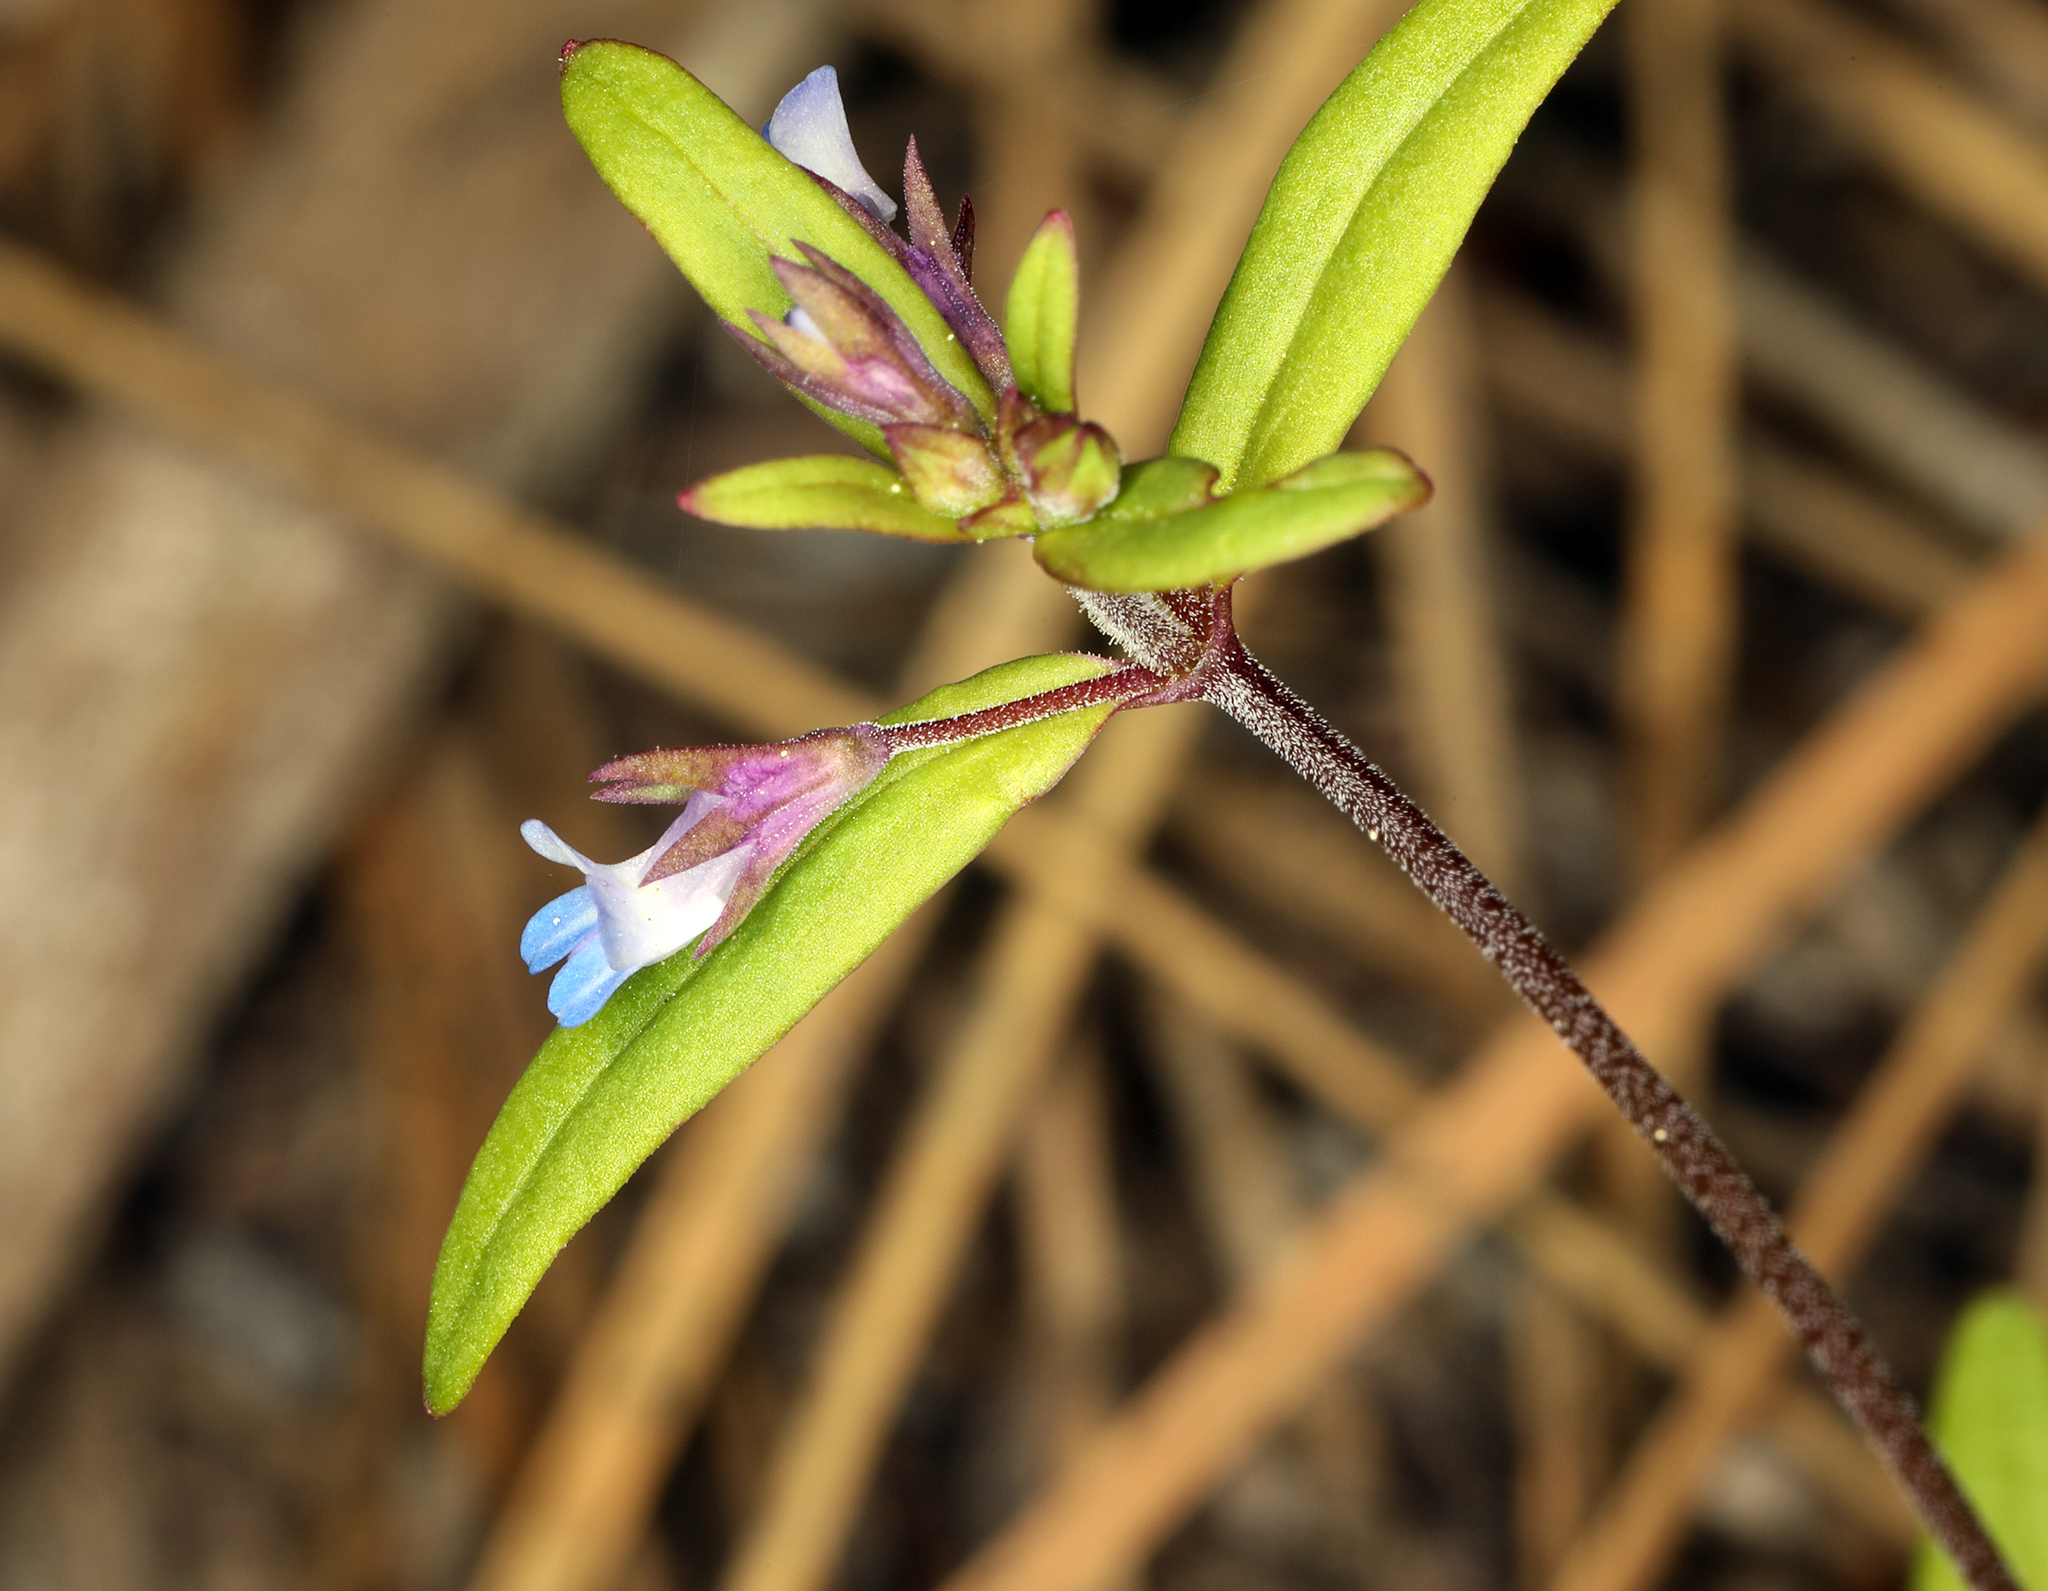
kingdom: Plantae
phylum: Tracheophyta
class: Magnoliopsida
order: Lamiales
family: Plantaginaceae
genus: Collinsia
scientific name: Collinsia parviflora
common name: Blue-lips
